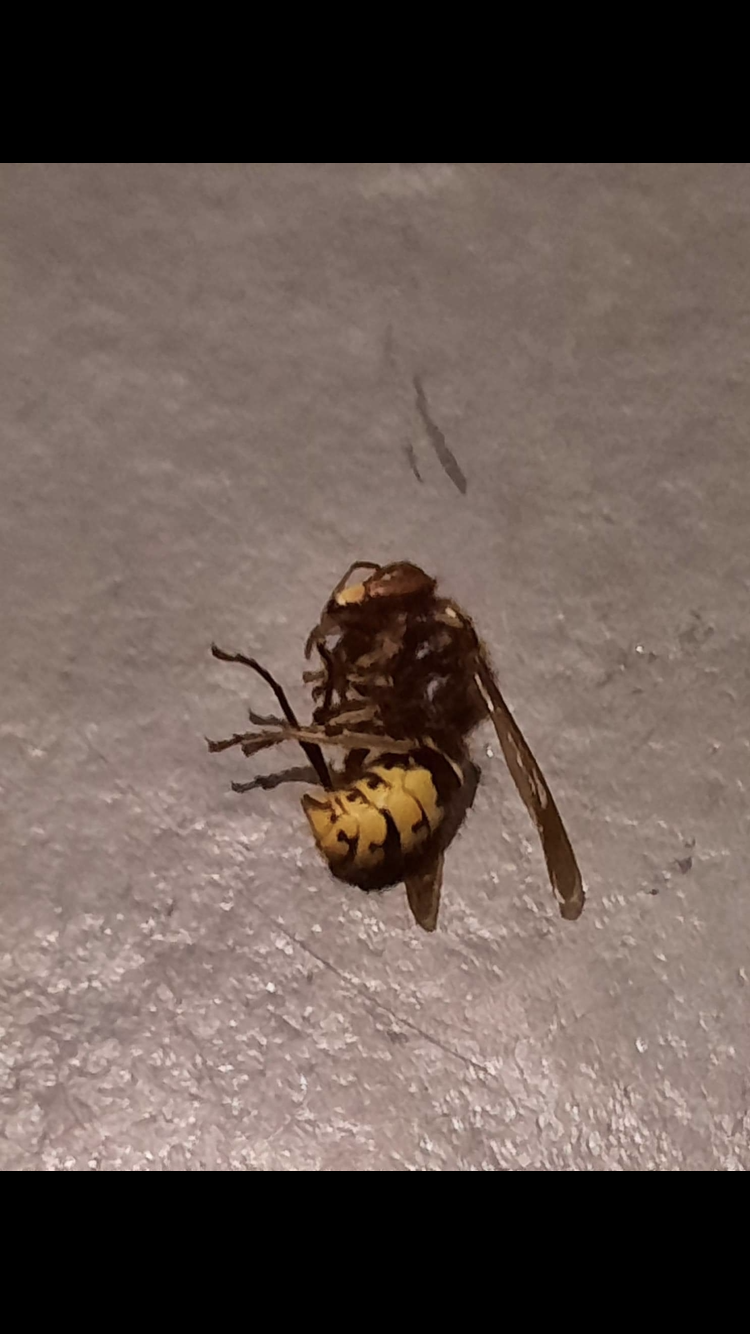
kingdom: Animalia
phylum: Arthropoda
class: Insecta
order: Hymenoptera
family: Vespidae
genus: Vespa
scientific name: Vespa crabro
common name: Hornet
